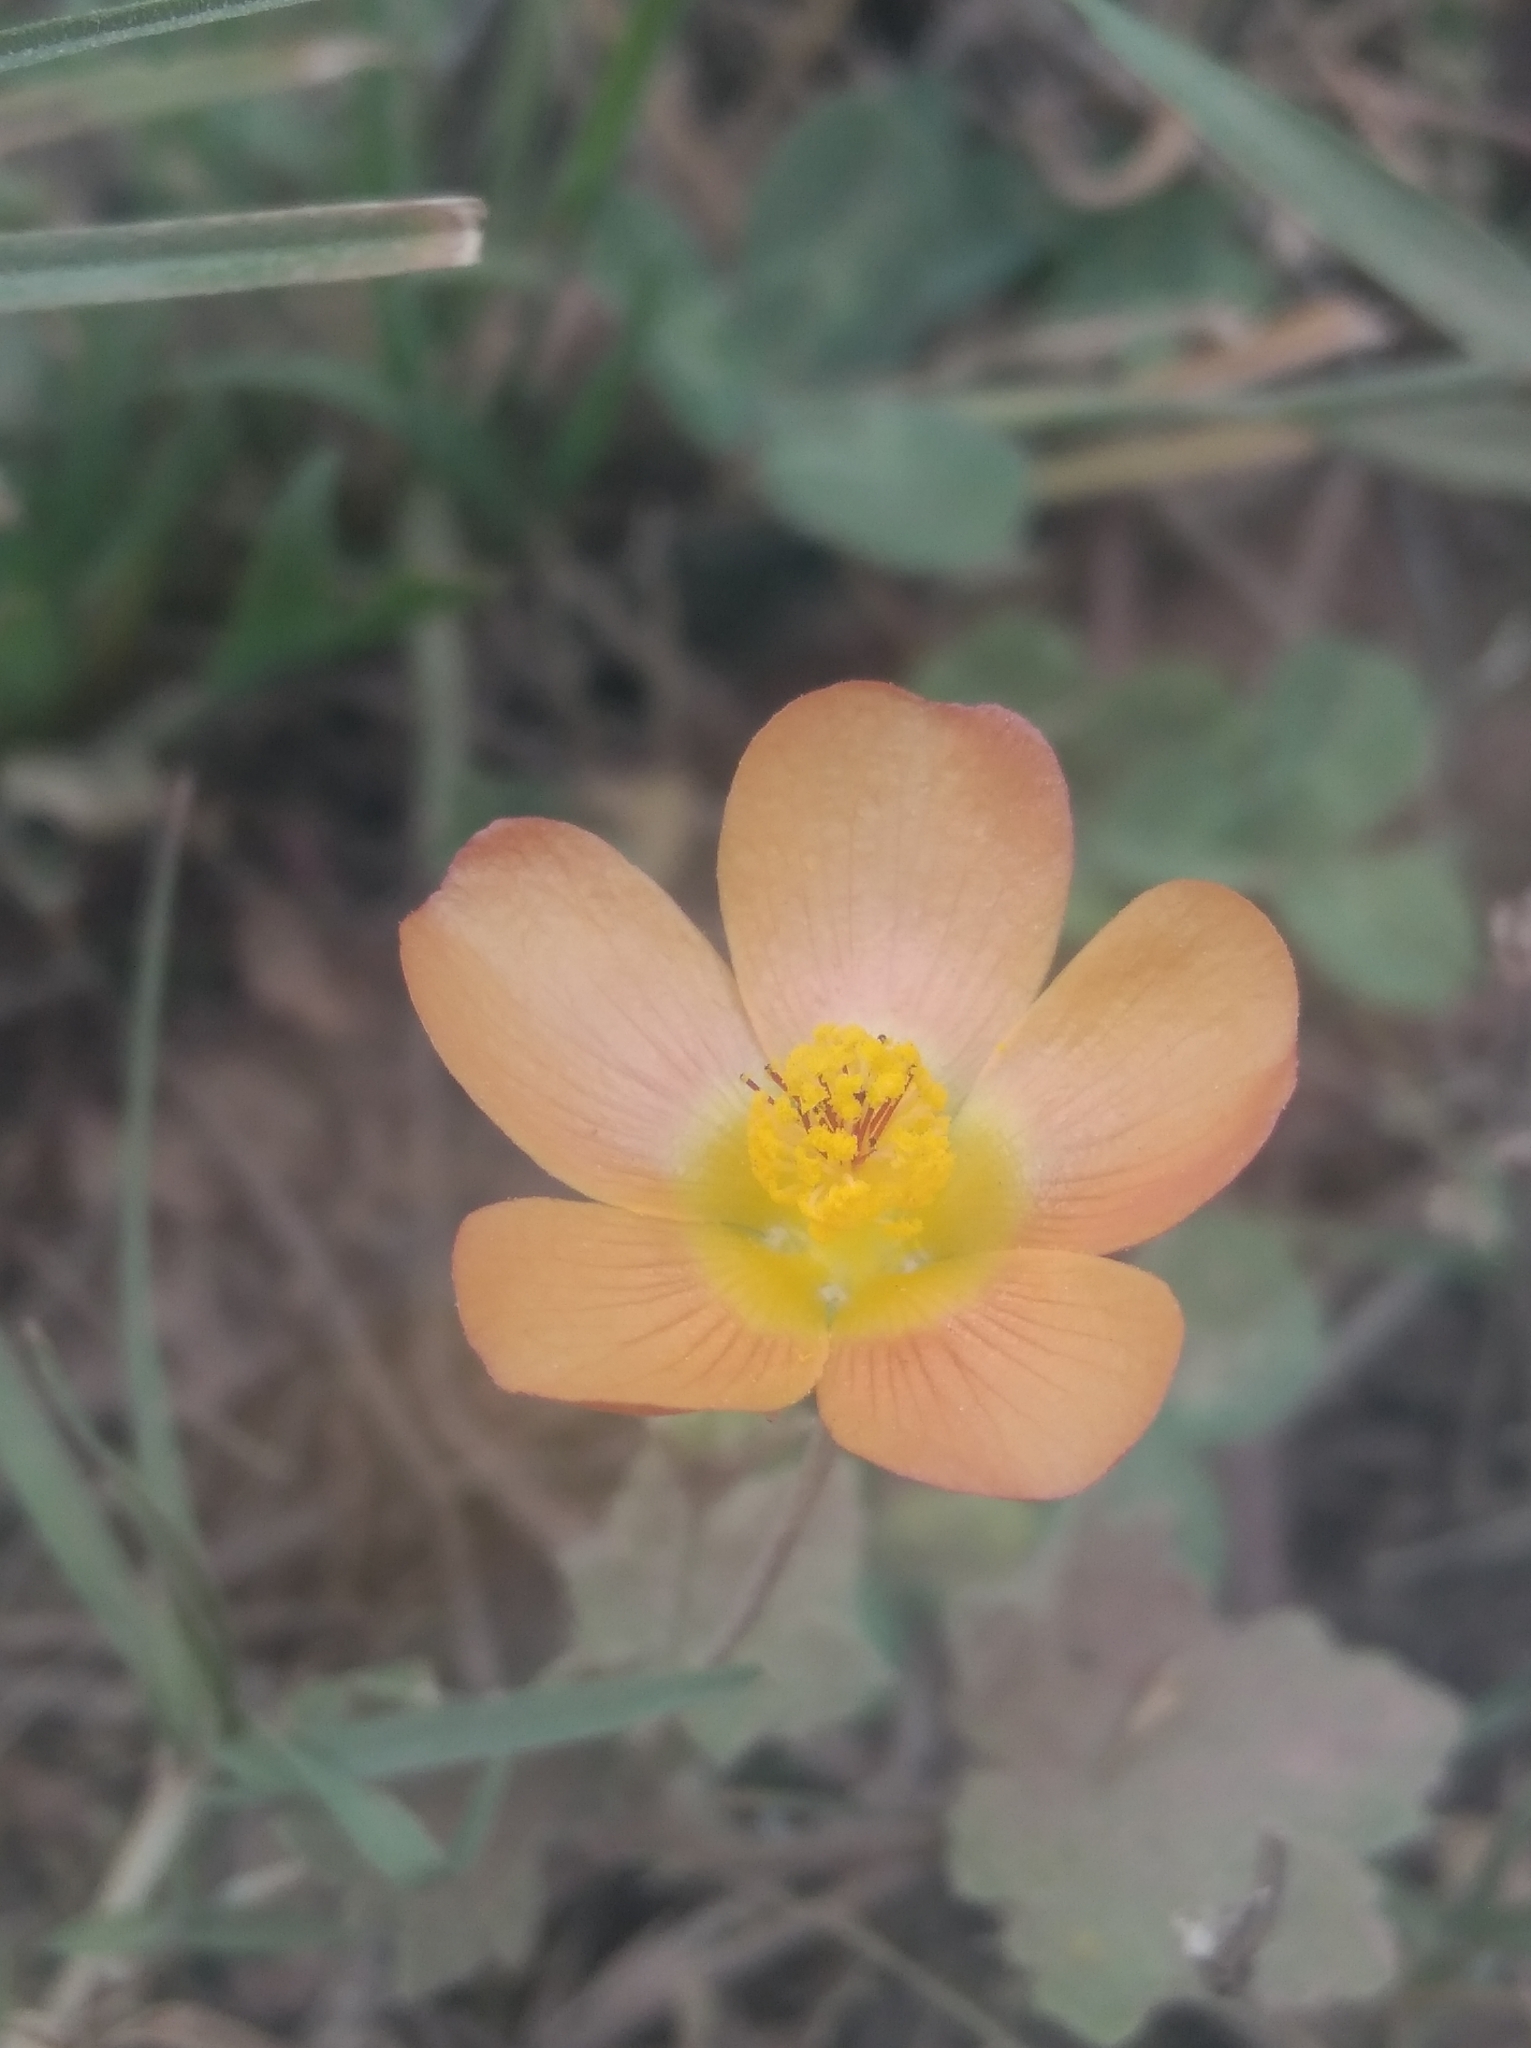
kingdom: Plantae
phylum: Tracheophyta
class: Magnoliopsida
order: Malvales
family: Malvaceae
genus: Modiolastrum
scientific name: Modiolastrum malvifolium
